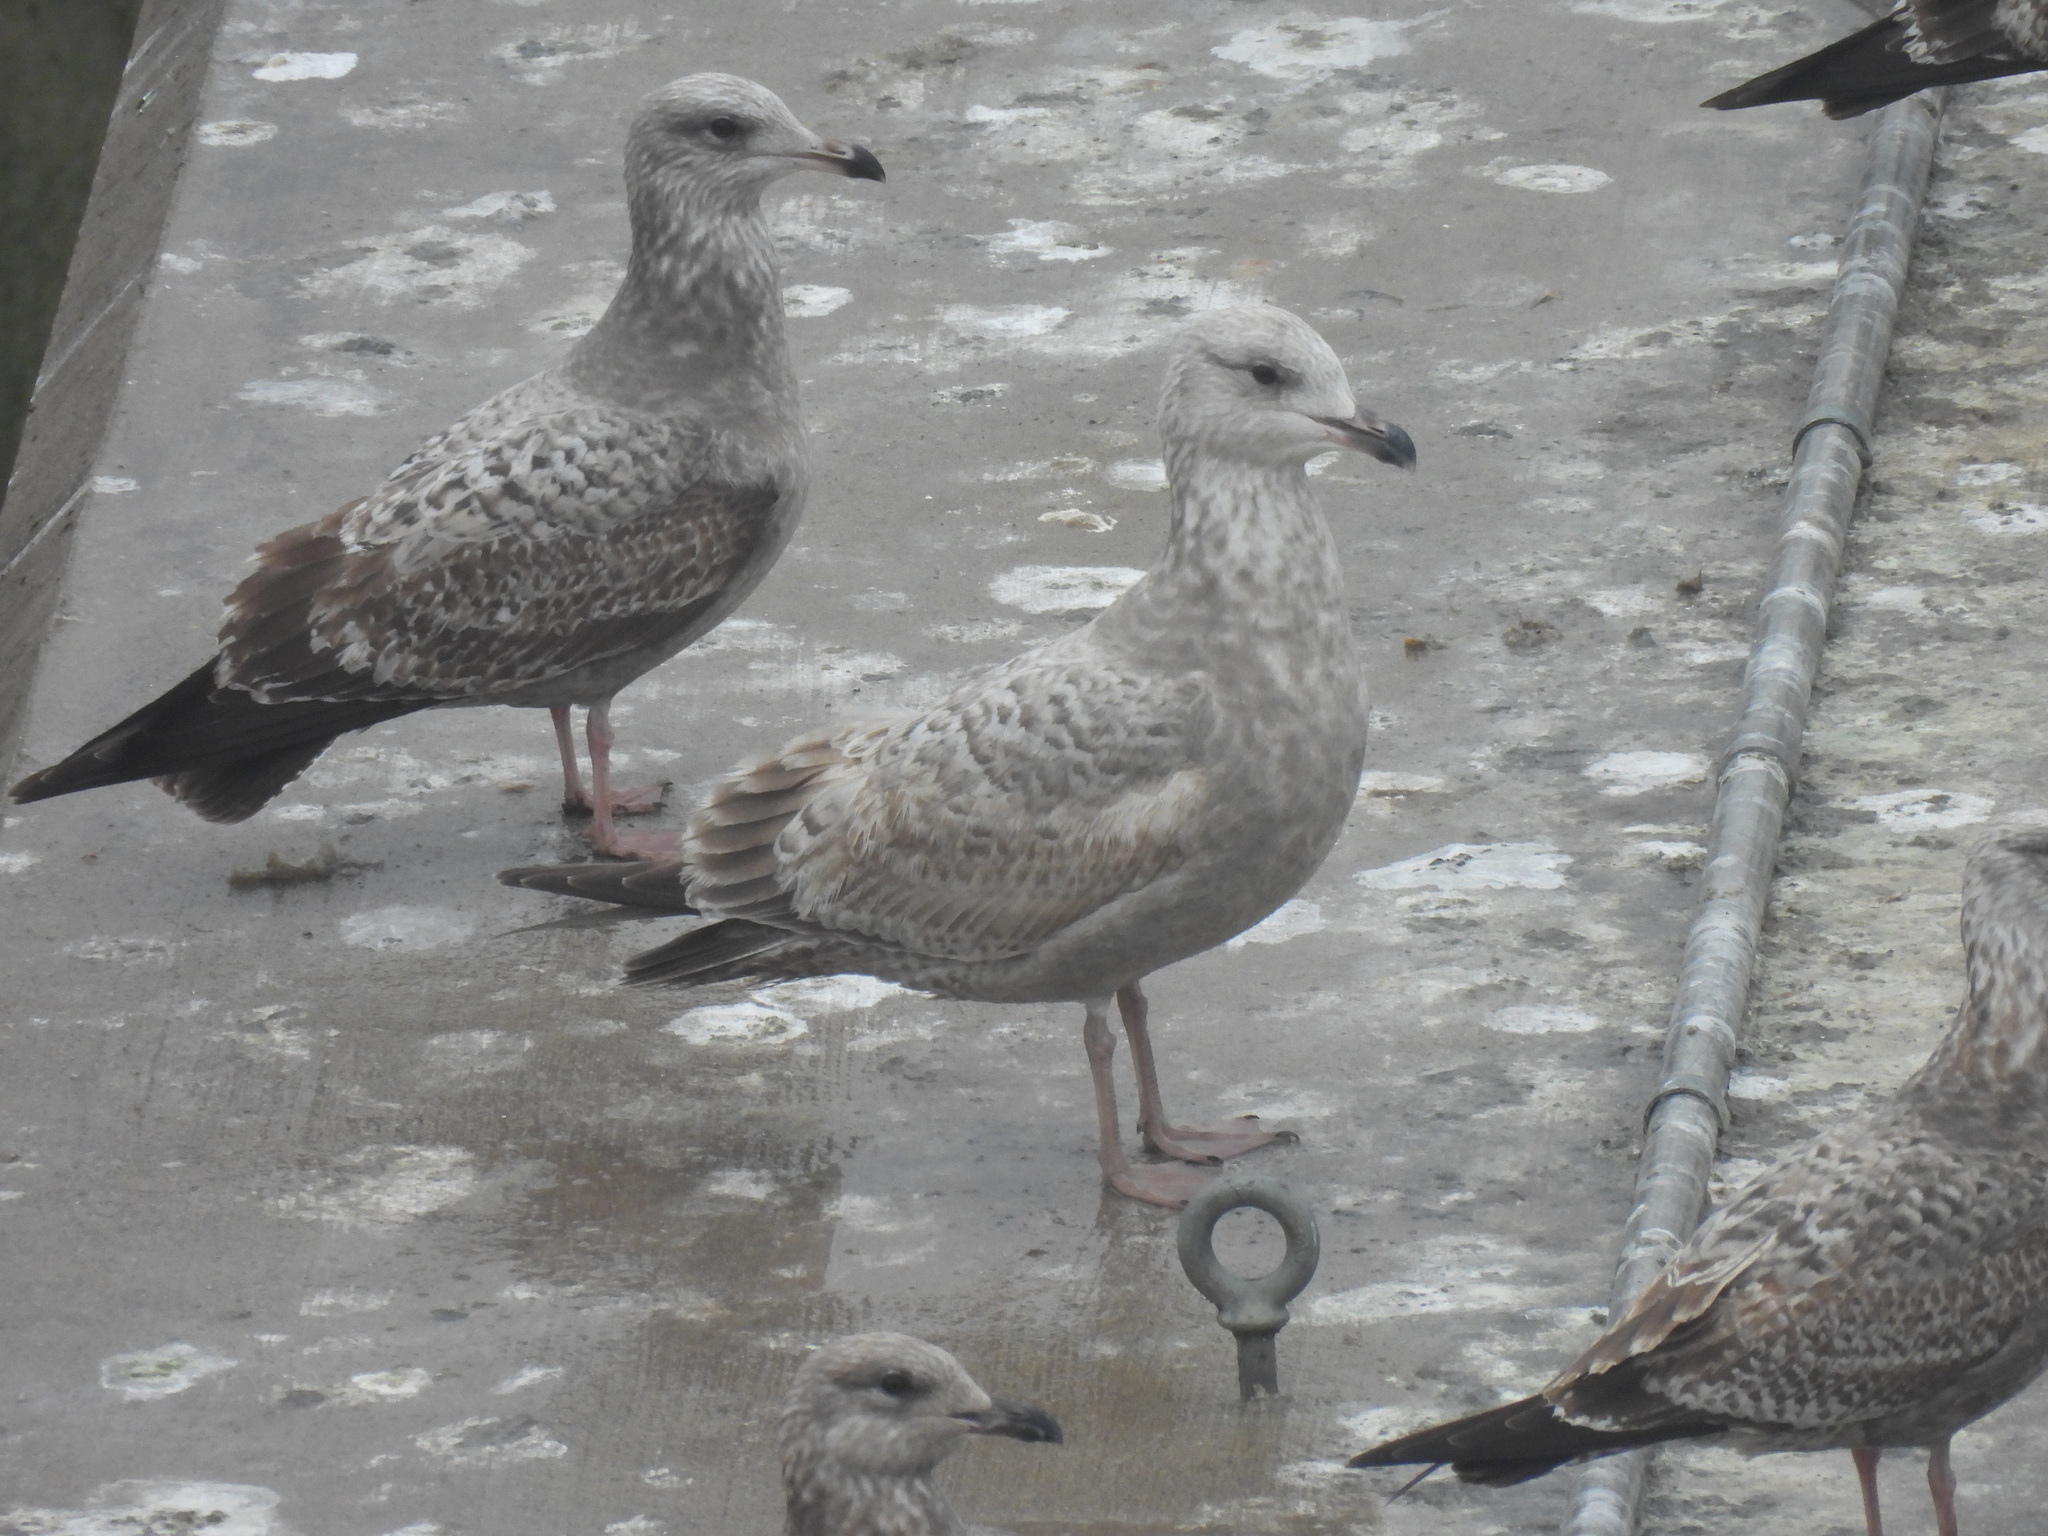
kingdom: Animalia
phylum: Chordata
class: Aves
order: Charadriiformes
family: Laridae
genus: Larus
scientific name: Larus argentatus
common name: Herring gull
